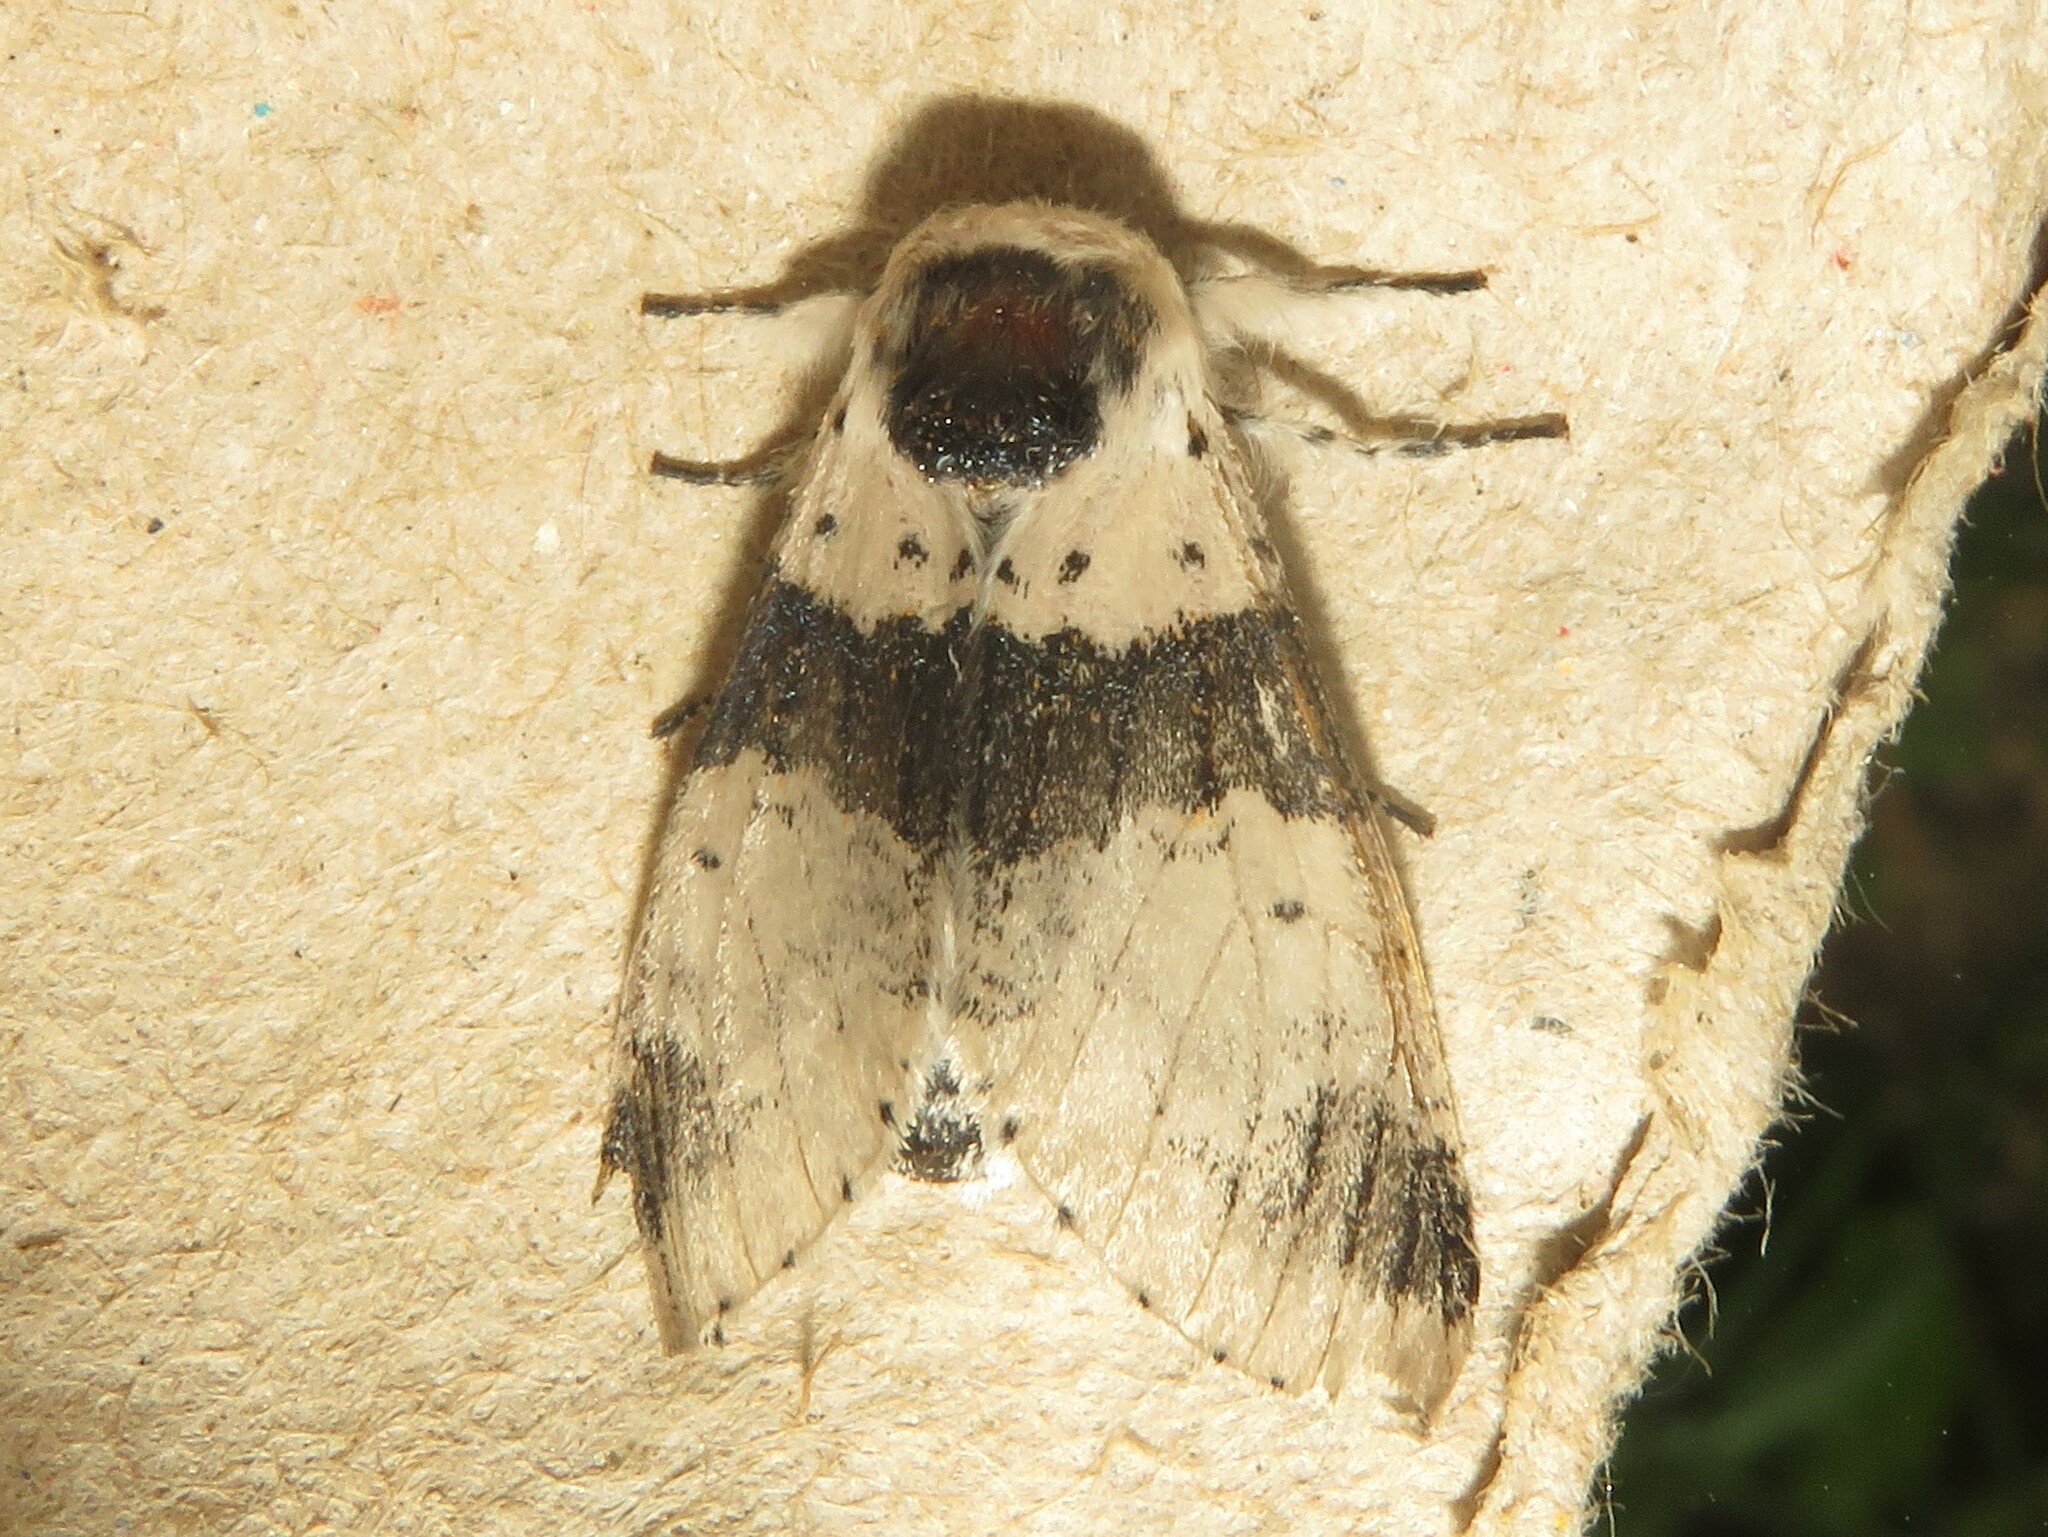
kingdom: Animalia
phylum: Arthropoda
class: Insecta
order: Lepidoptera
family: Notodontidae
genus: Furcula
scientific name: Furcula modesta
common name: Modest furcula moth
